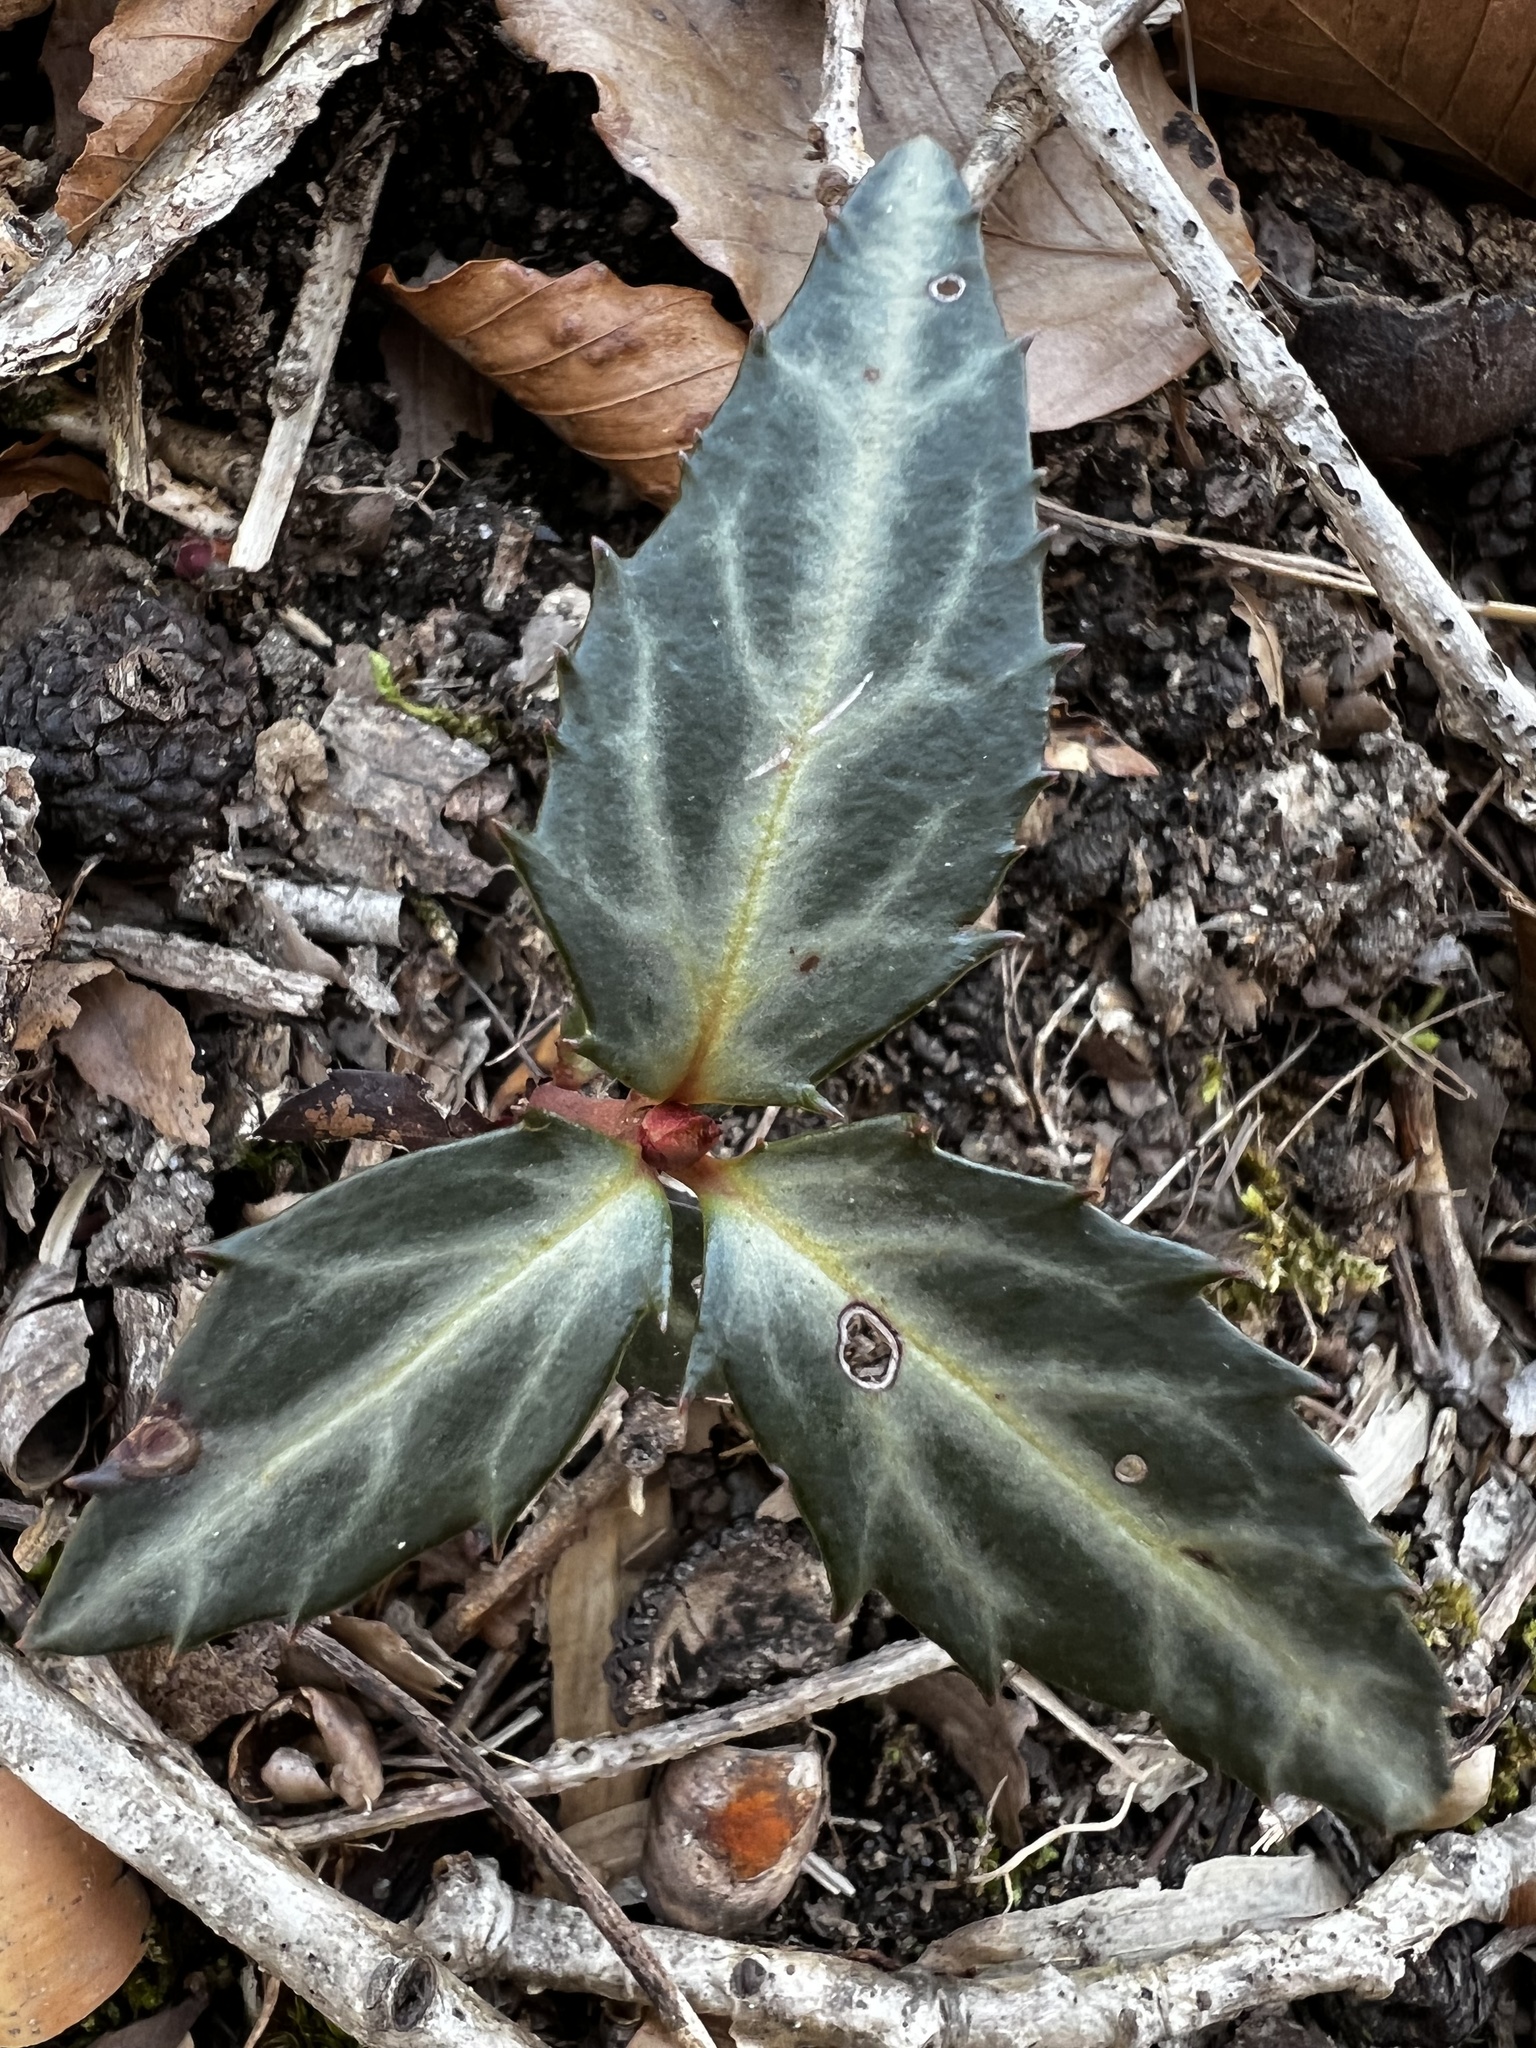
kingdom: Plantae
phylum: Tracheophyta
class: Magnoliopsida
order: Ericales
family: Ericaceae
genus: Chimaphila
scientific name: Chimaphila maculata
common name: Spotted pipsissewa
